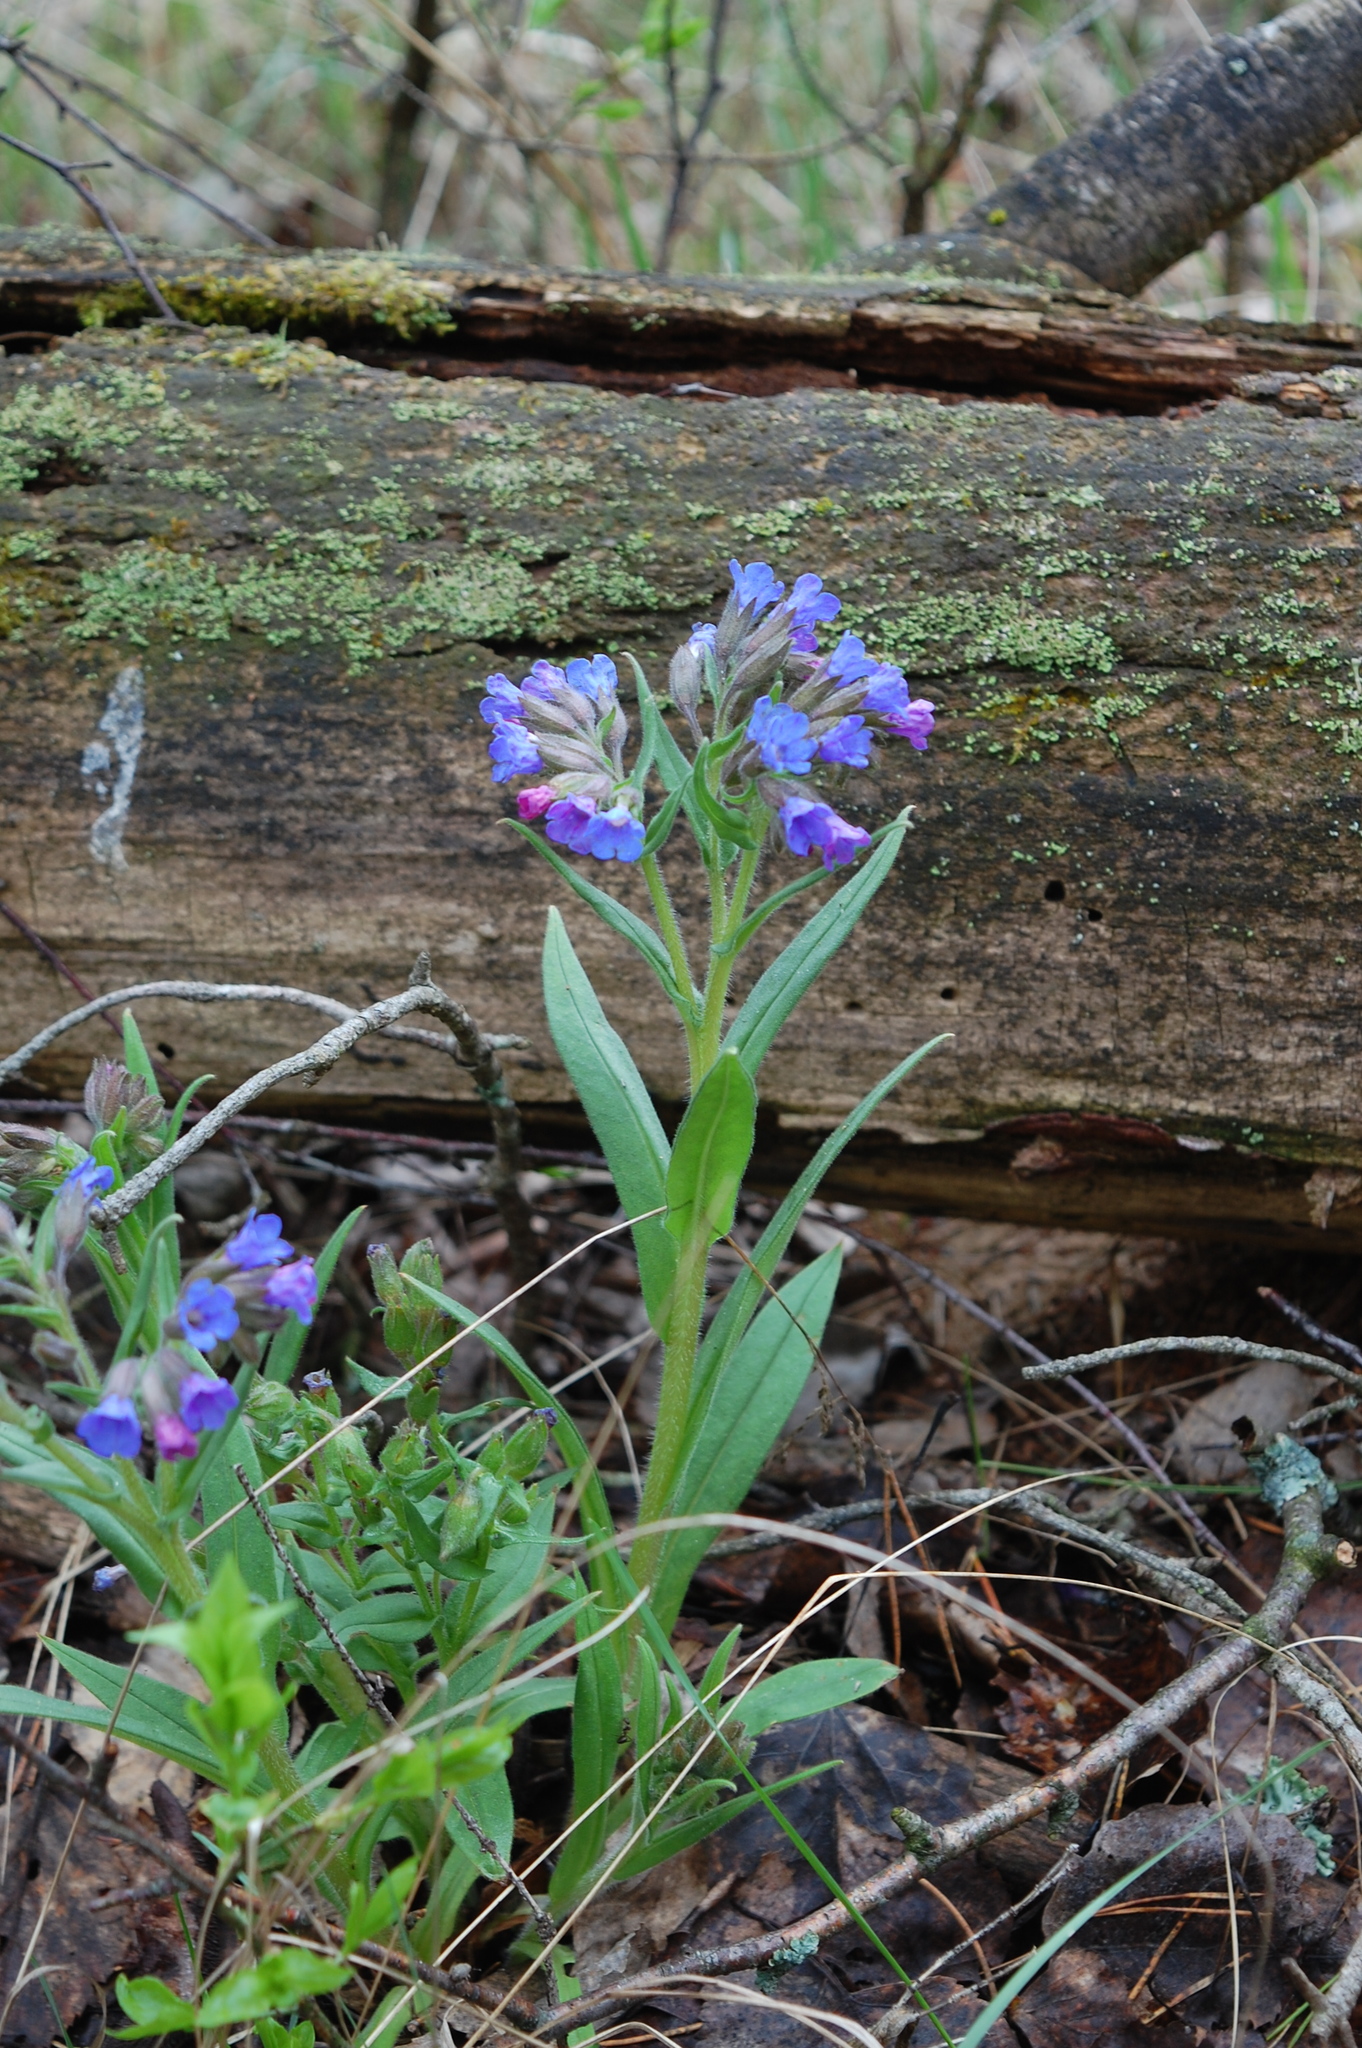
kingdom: Plantae
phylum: Tracheophyta
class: Magnoliopsida
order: Boraginales
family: Boraginaceae
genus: Pulmonaria
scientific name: Pulmonaria angustifolia
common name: Blue cowslip
